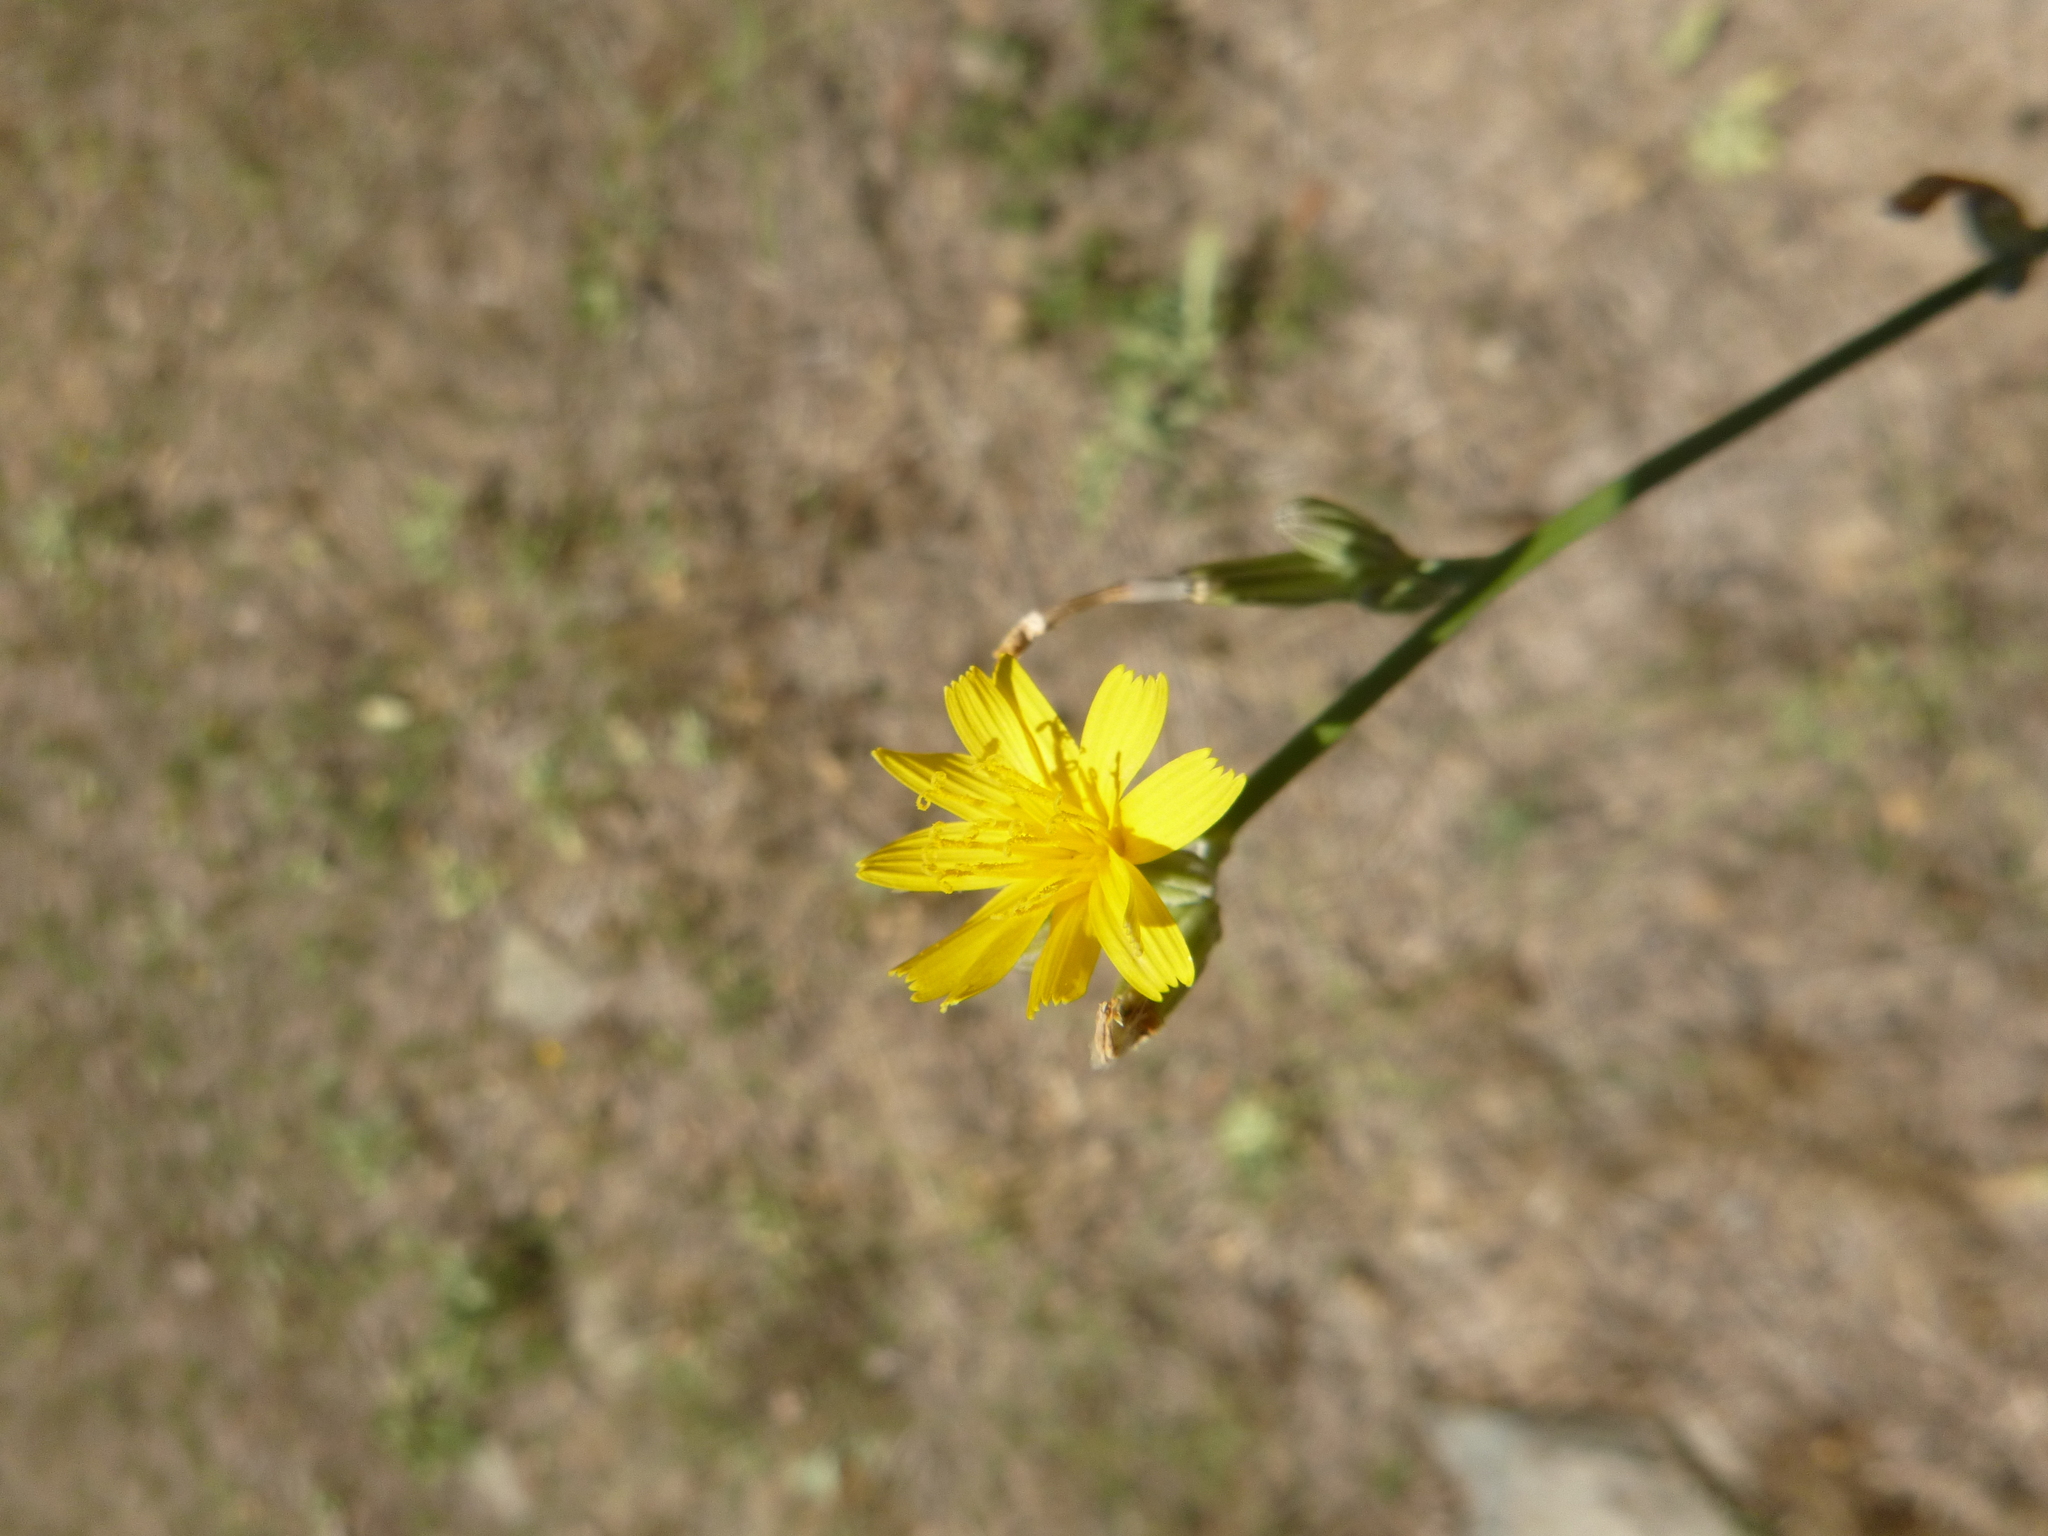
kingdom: Plantae
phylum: Tracheophyta
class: Magnoliopsida
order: Asterales
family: Asteraceae
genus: Chondrilla
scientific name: Chondrilla juncea
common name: Skeleton weed
